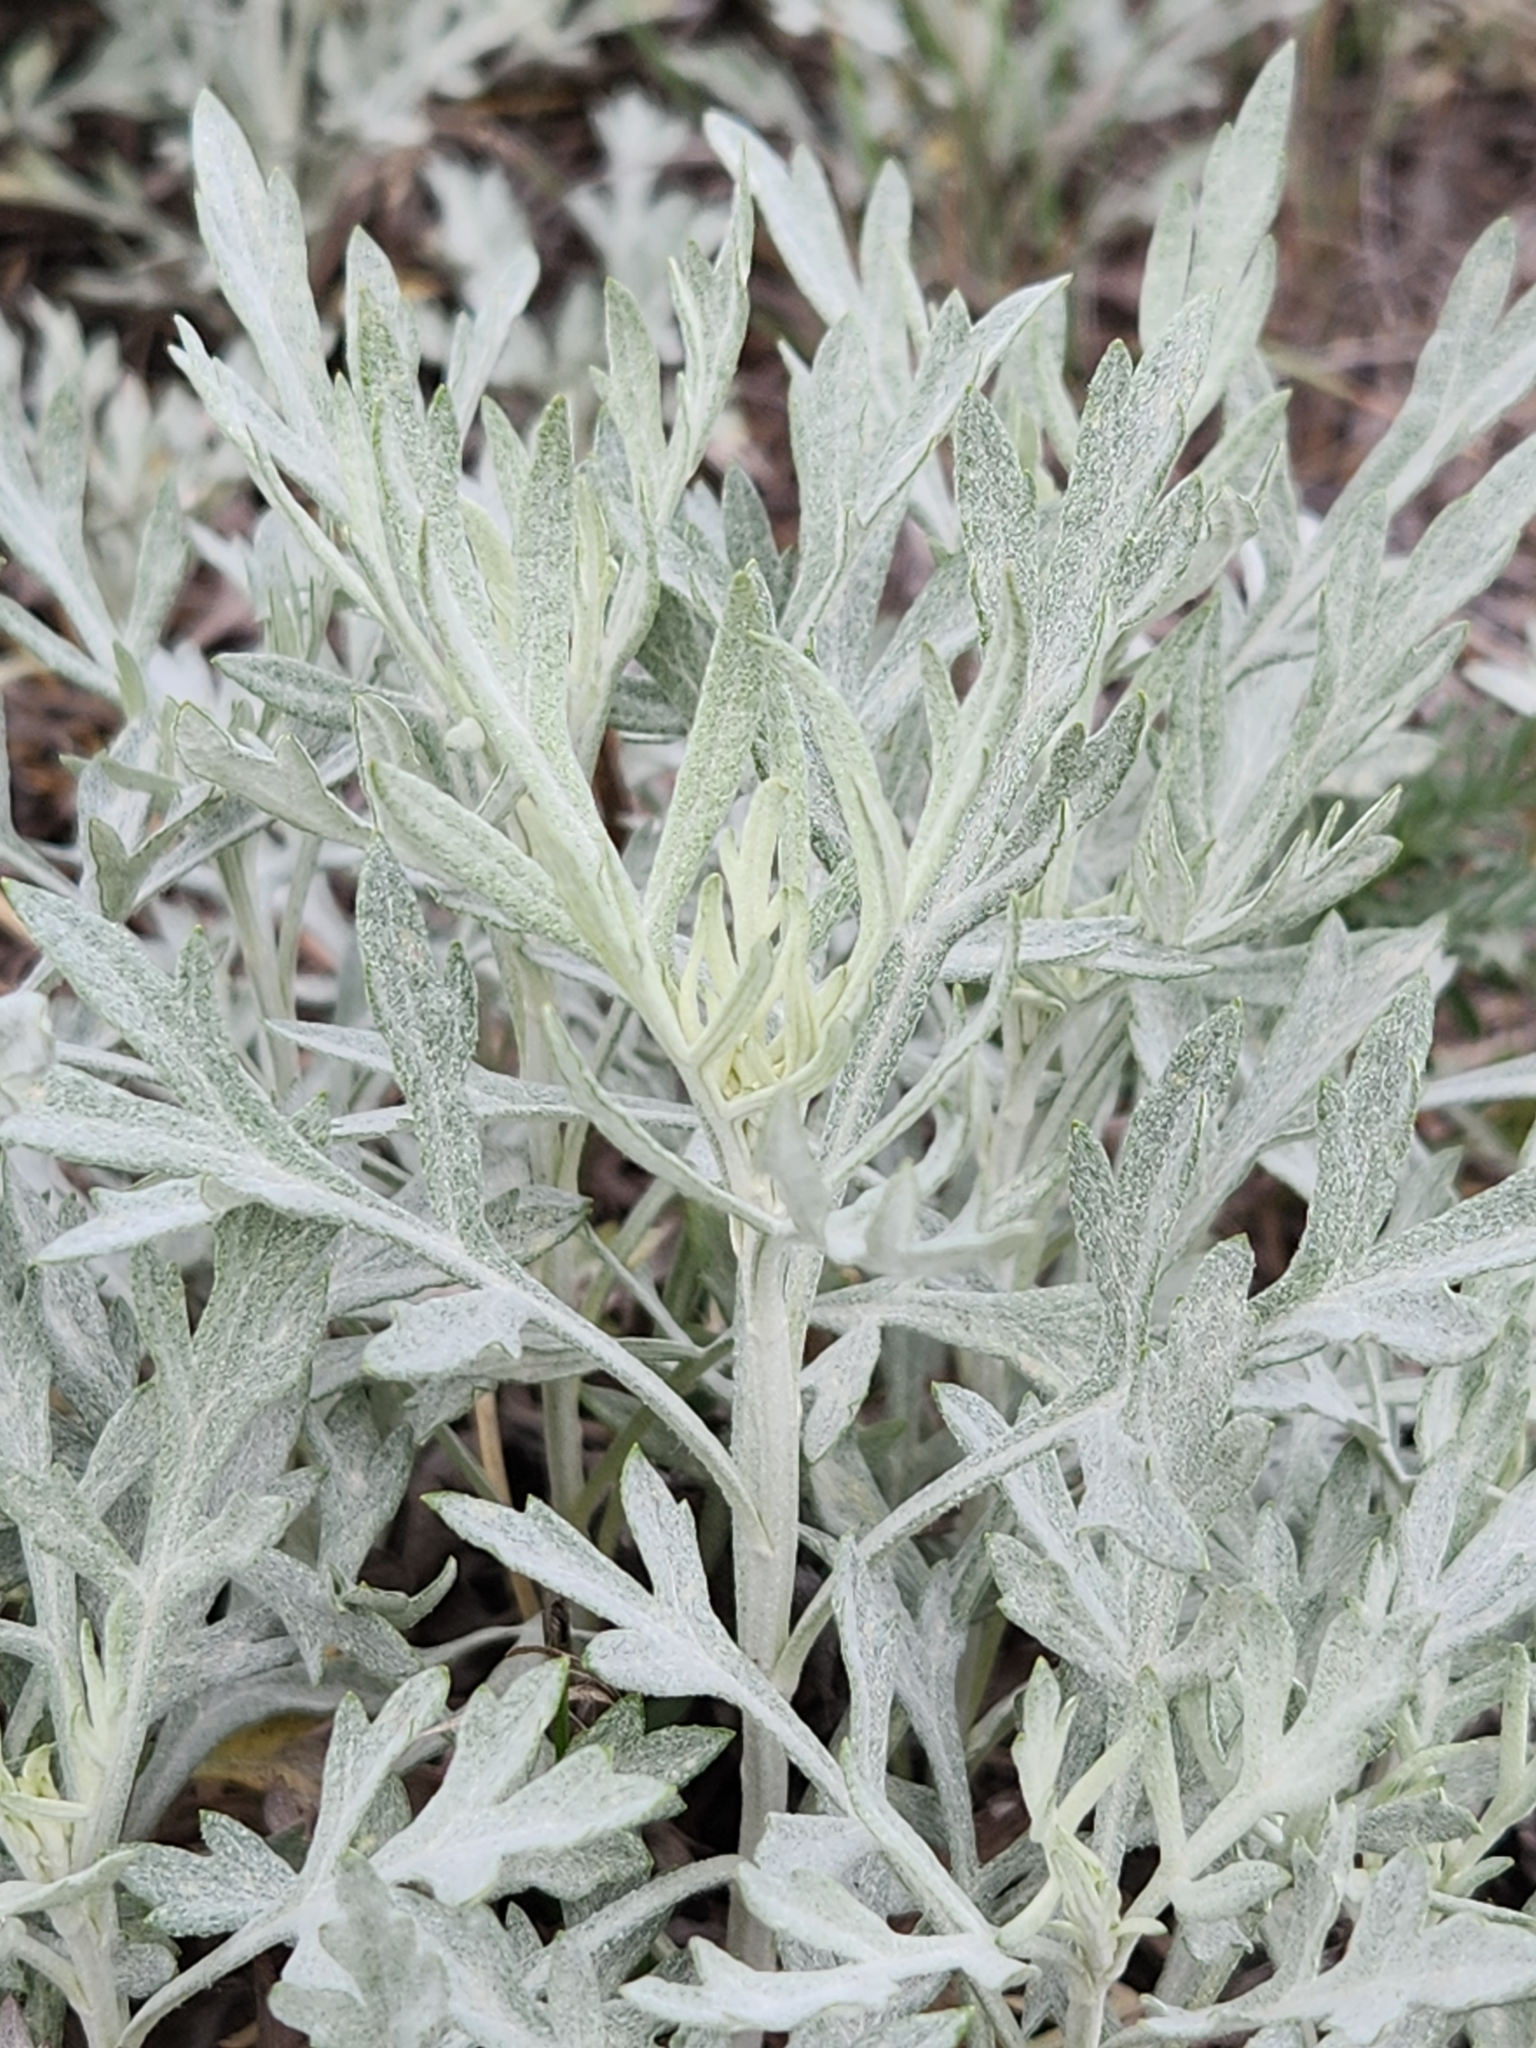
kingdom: Plantae
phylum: Tracheophyta
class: Magnoliopsida
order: Asterales
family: Asteraceae
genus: Artemisia
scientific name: Artemisia ludoviciana
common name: Western mugwort
